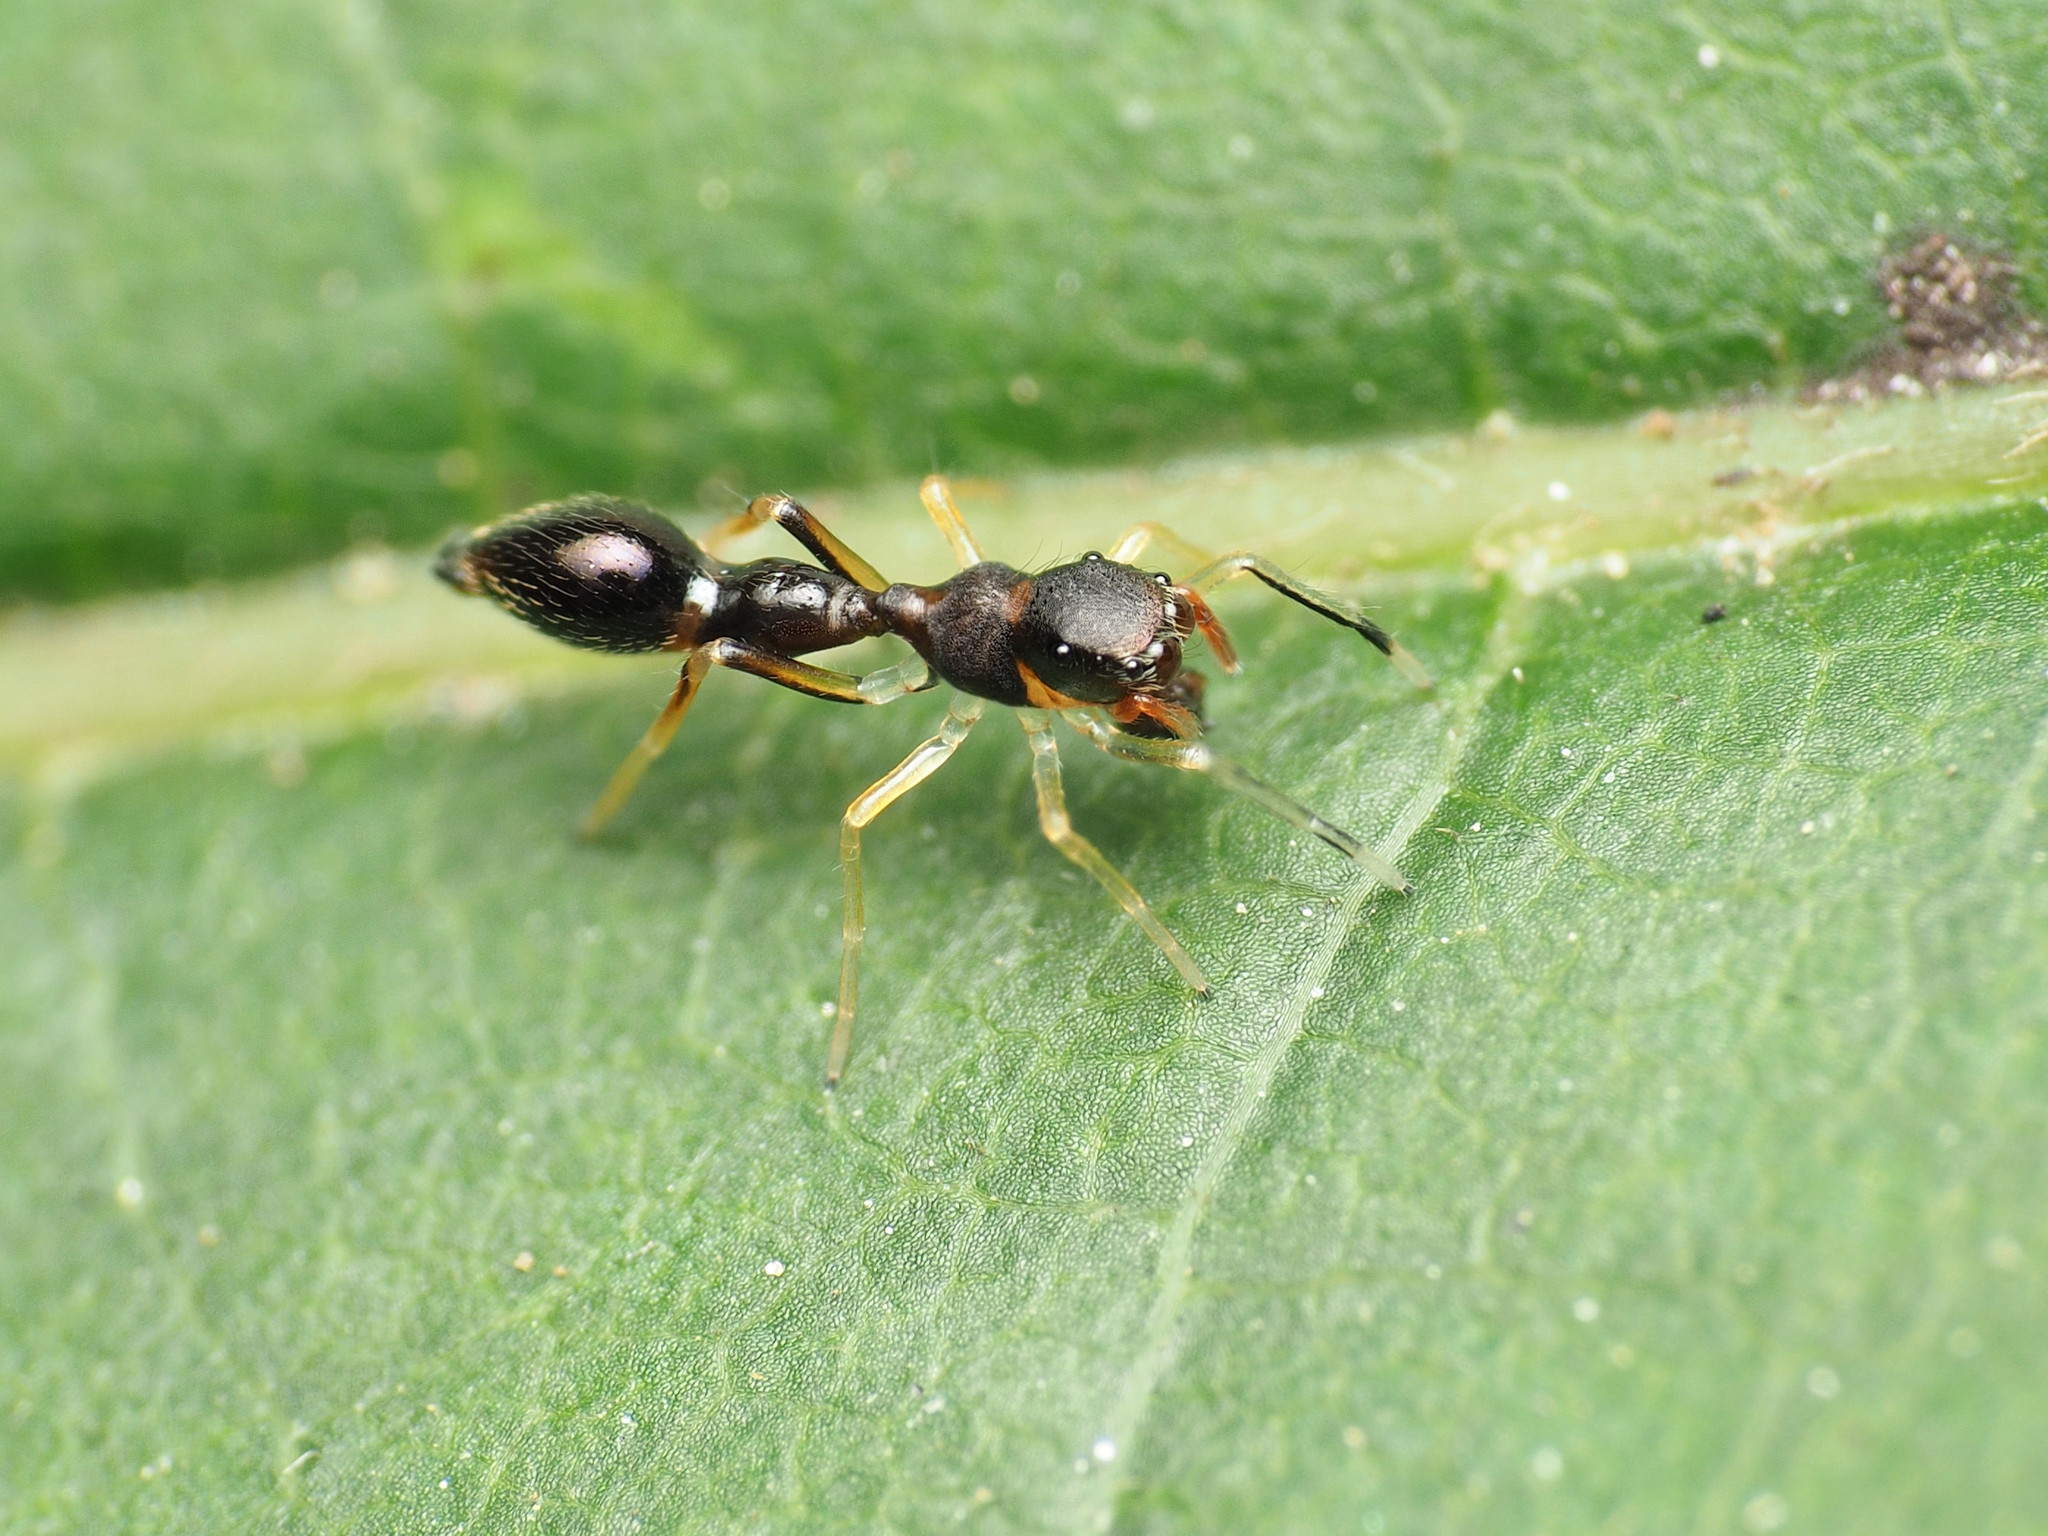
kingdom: Animalia
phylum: Arthropoda
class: Arachnida
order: Araneae
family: Salticidae
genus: Synemosyna
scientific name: Synemosyna formica
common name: Slender ant-mimic jumping spider
